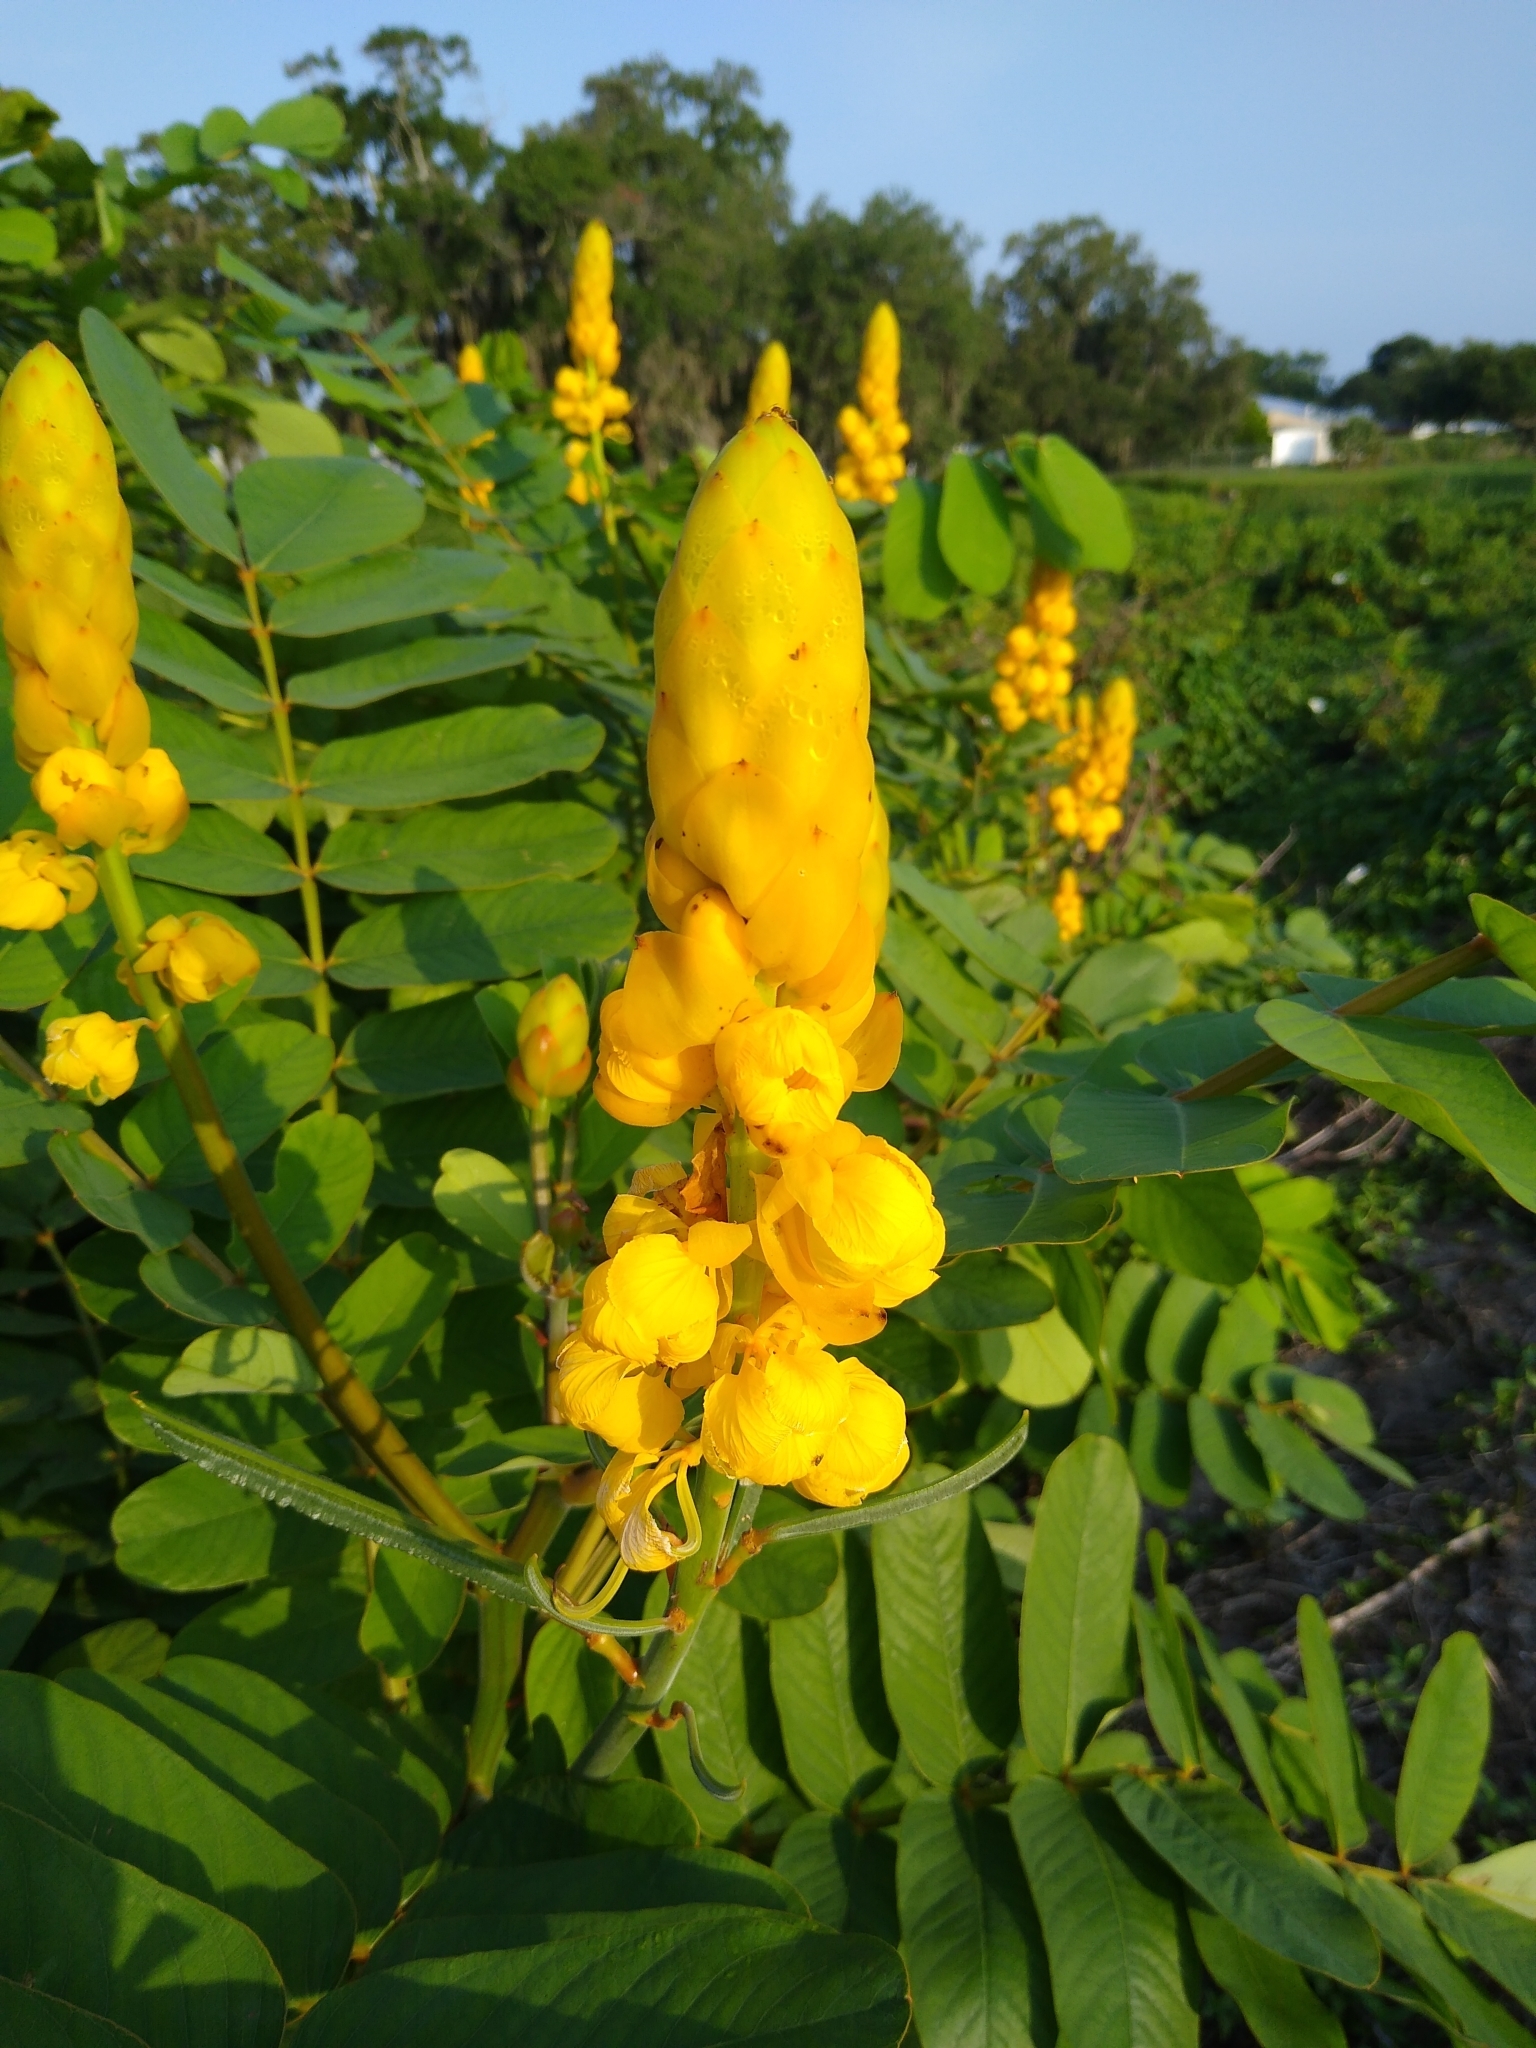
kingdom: Plantae
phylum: Tracheophyta
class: Magnoliopsida
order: Fabales
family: Fabaceae
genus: Senna
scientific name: Senna alata
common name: Emperor's candlesticks
